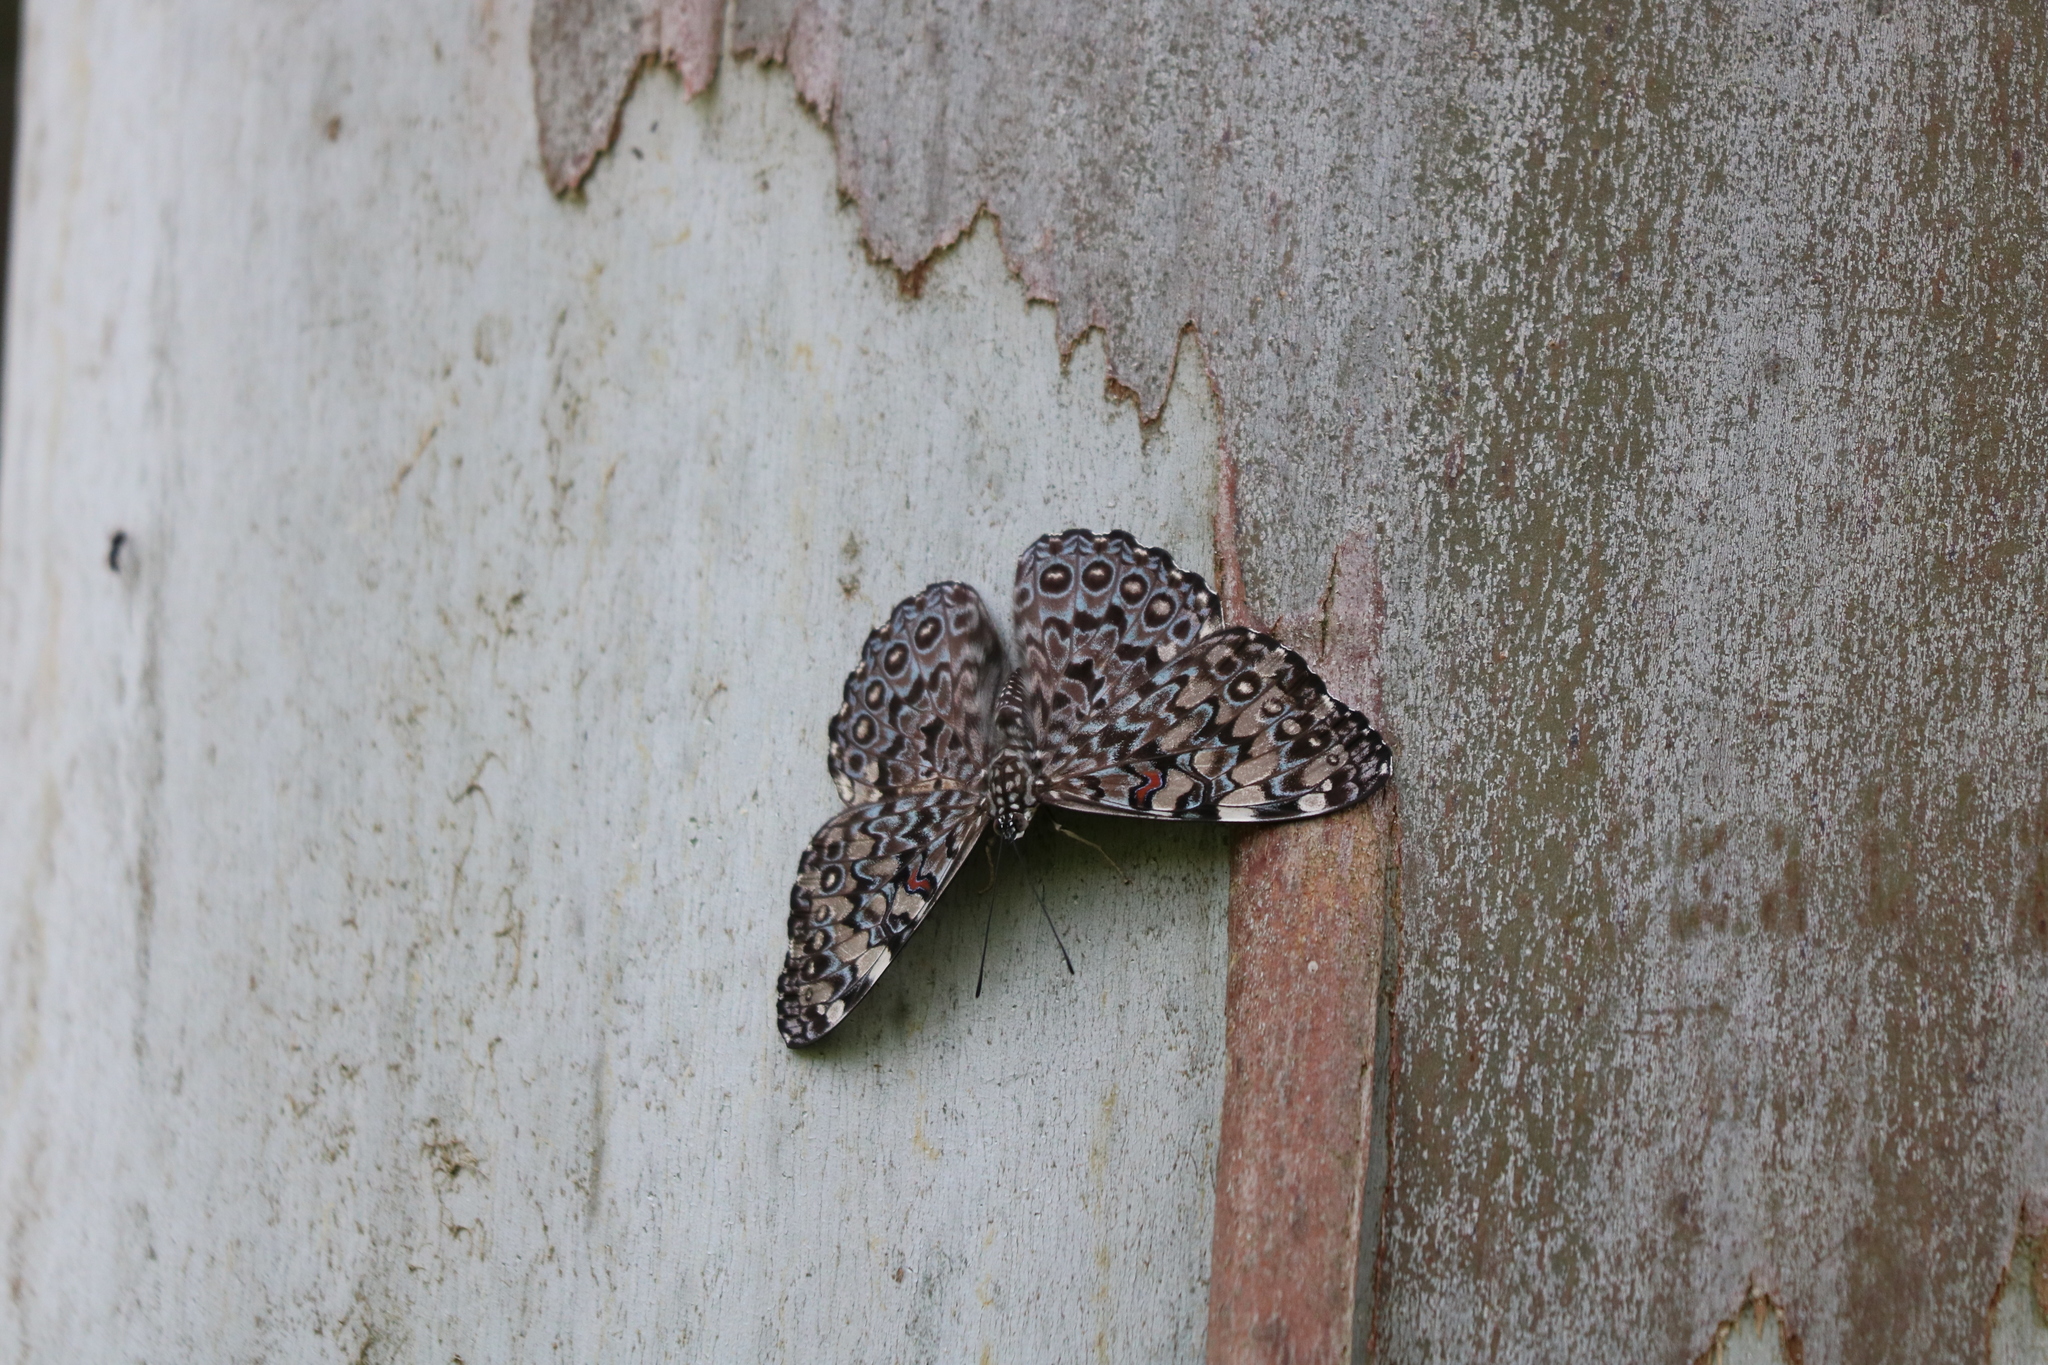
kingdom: Animalia
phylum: Arthropoda
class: Insecta
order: Lepidoptera
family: Nymphalidae
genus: Hamadryas
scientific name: Hamadryas feronia
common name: Variable cracker
